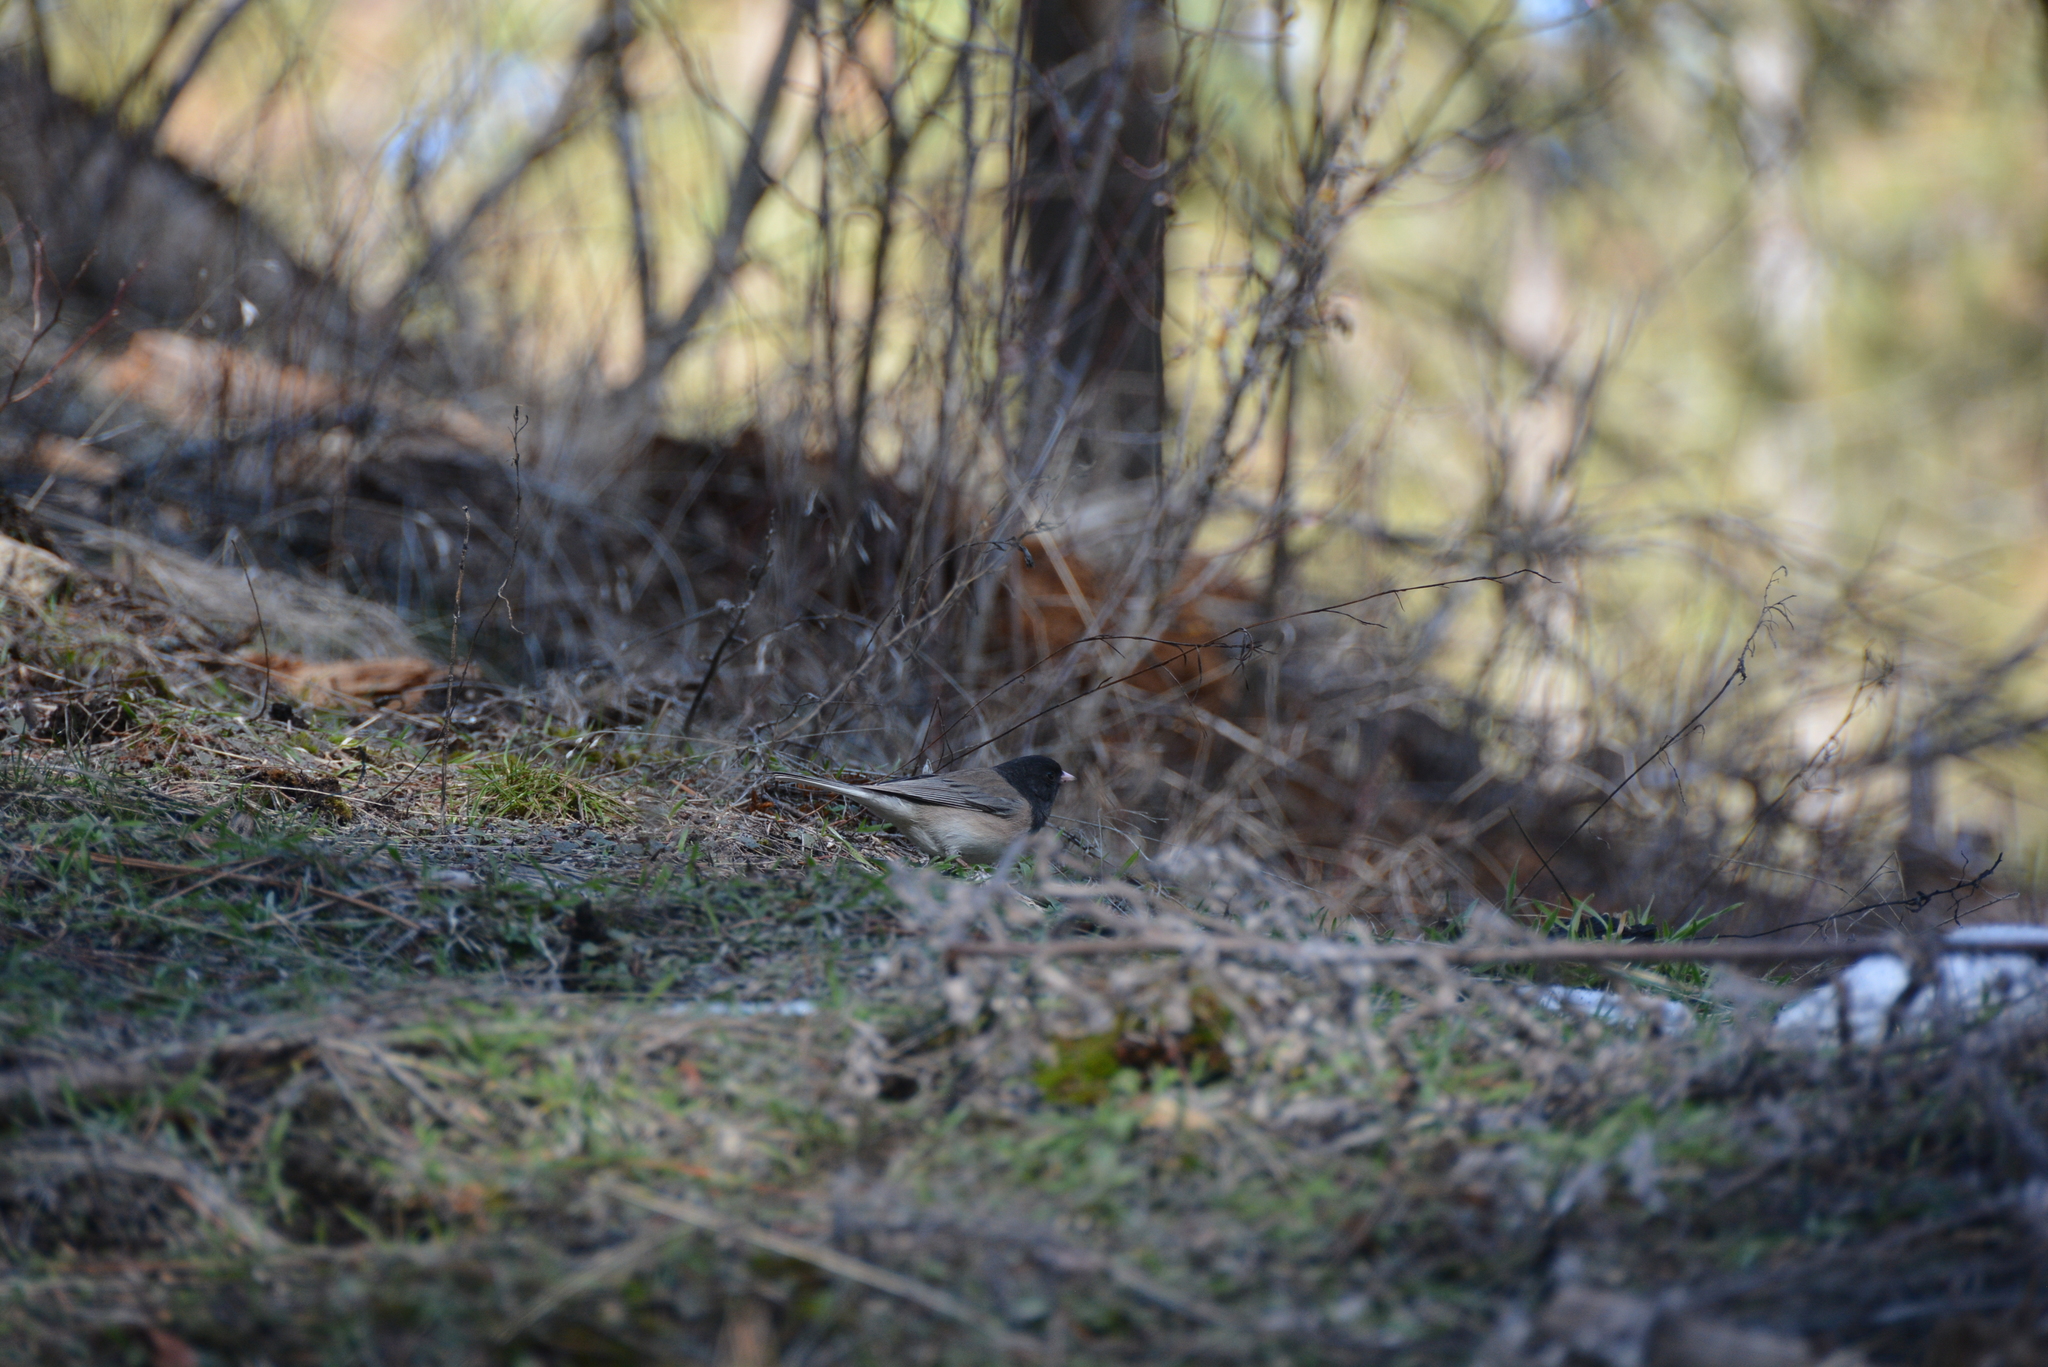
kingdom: Animalia
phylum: Chordata
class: Aves
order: Passeriformes
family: Passerellidae
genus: Junco
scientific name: Junco hyemalis
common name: Dark-eyed junco
